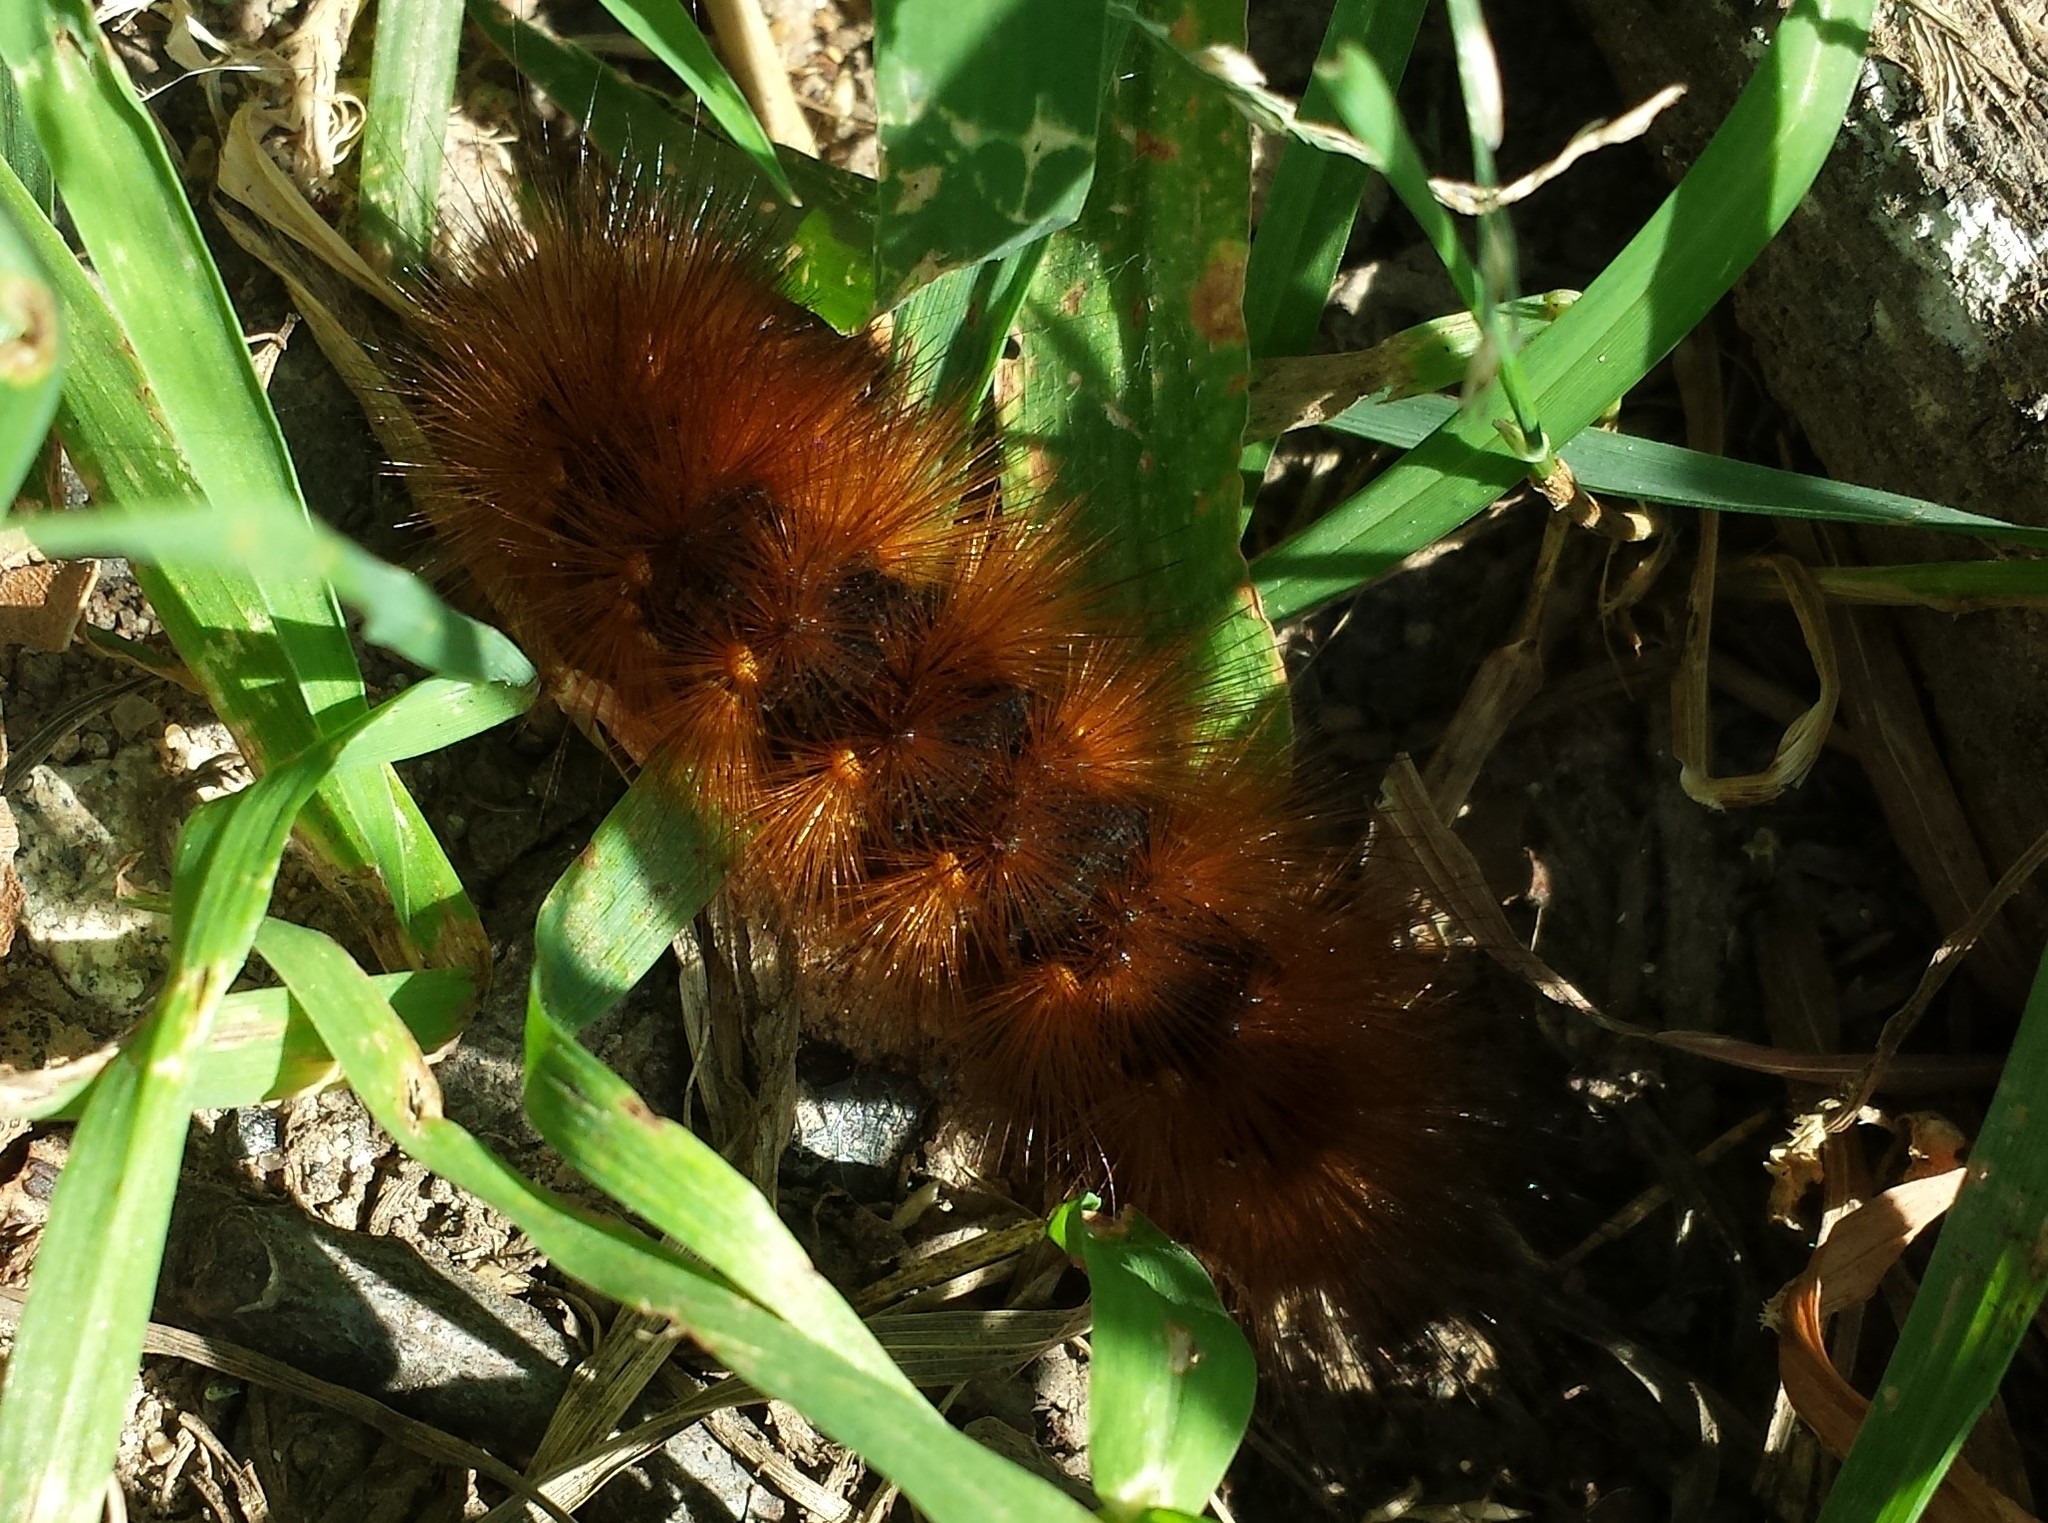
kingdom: Animalia
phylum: Arthropoda
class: Insecta
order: Lepidoptera
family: Erebidae
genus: Estigmene
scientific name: Estigmene acrea
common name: Salt marsh moth
